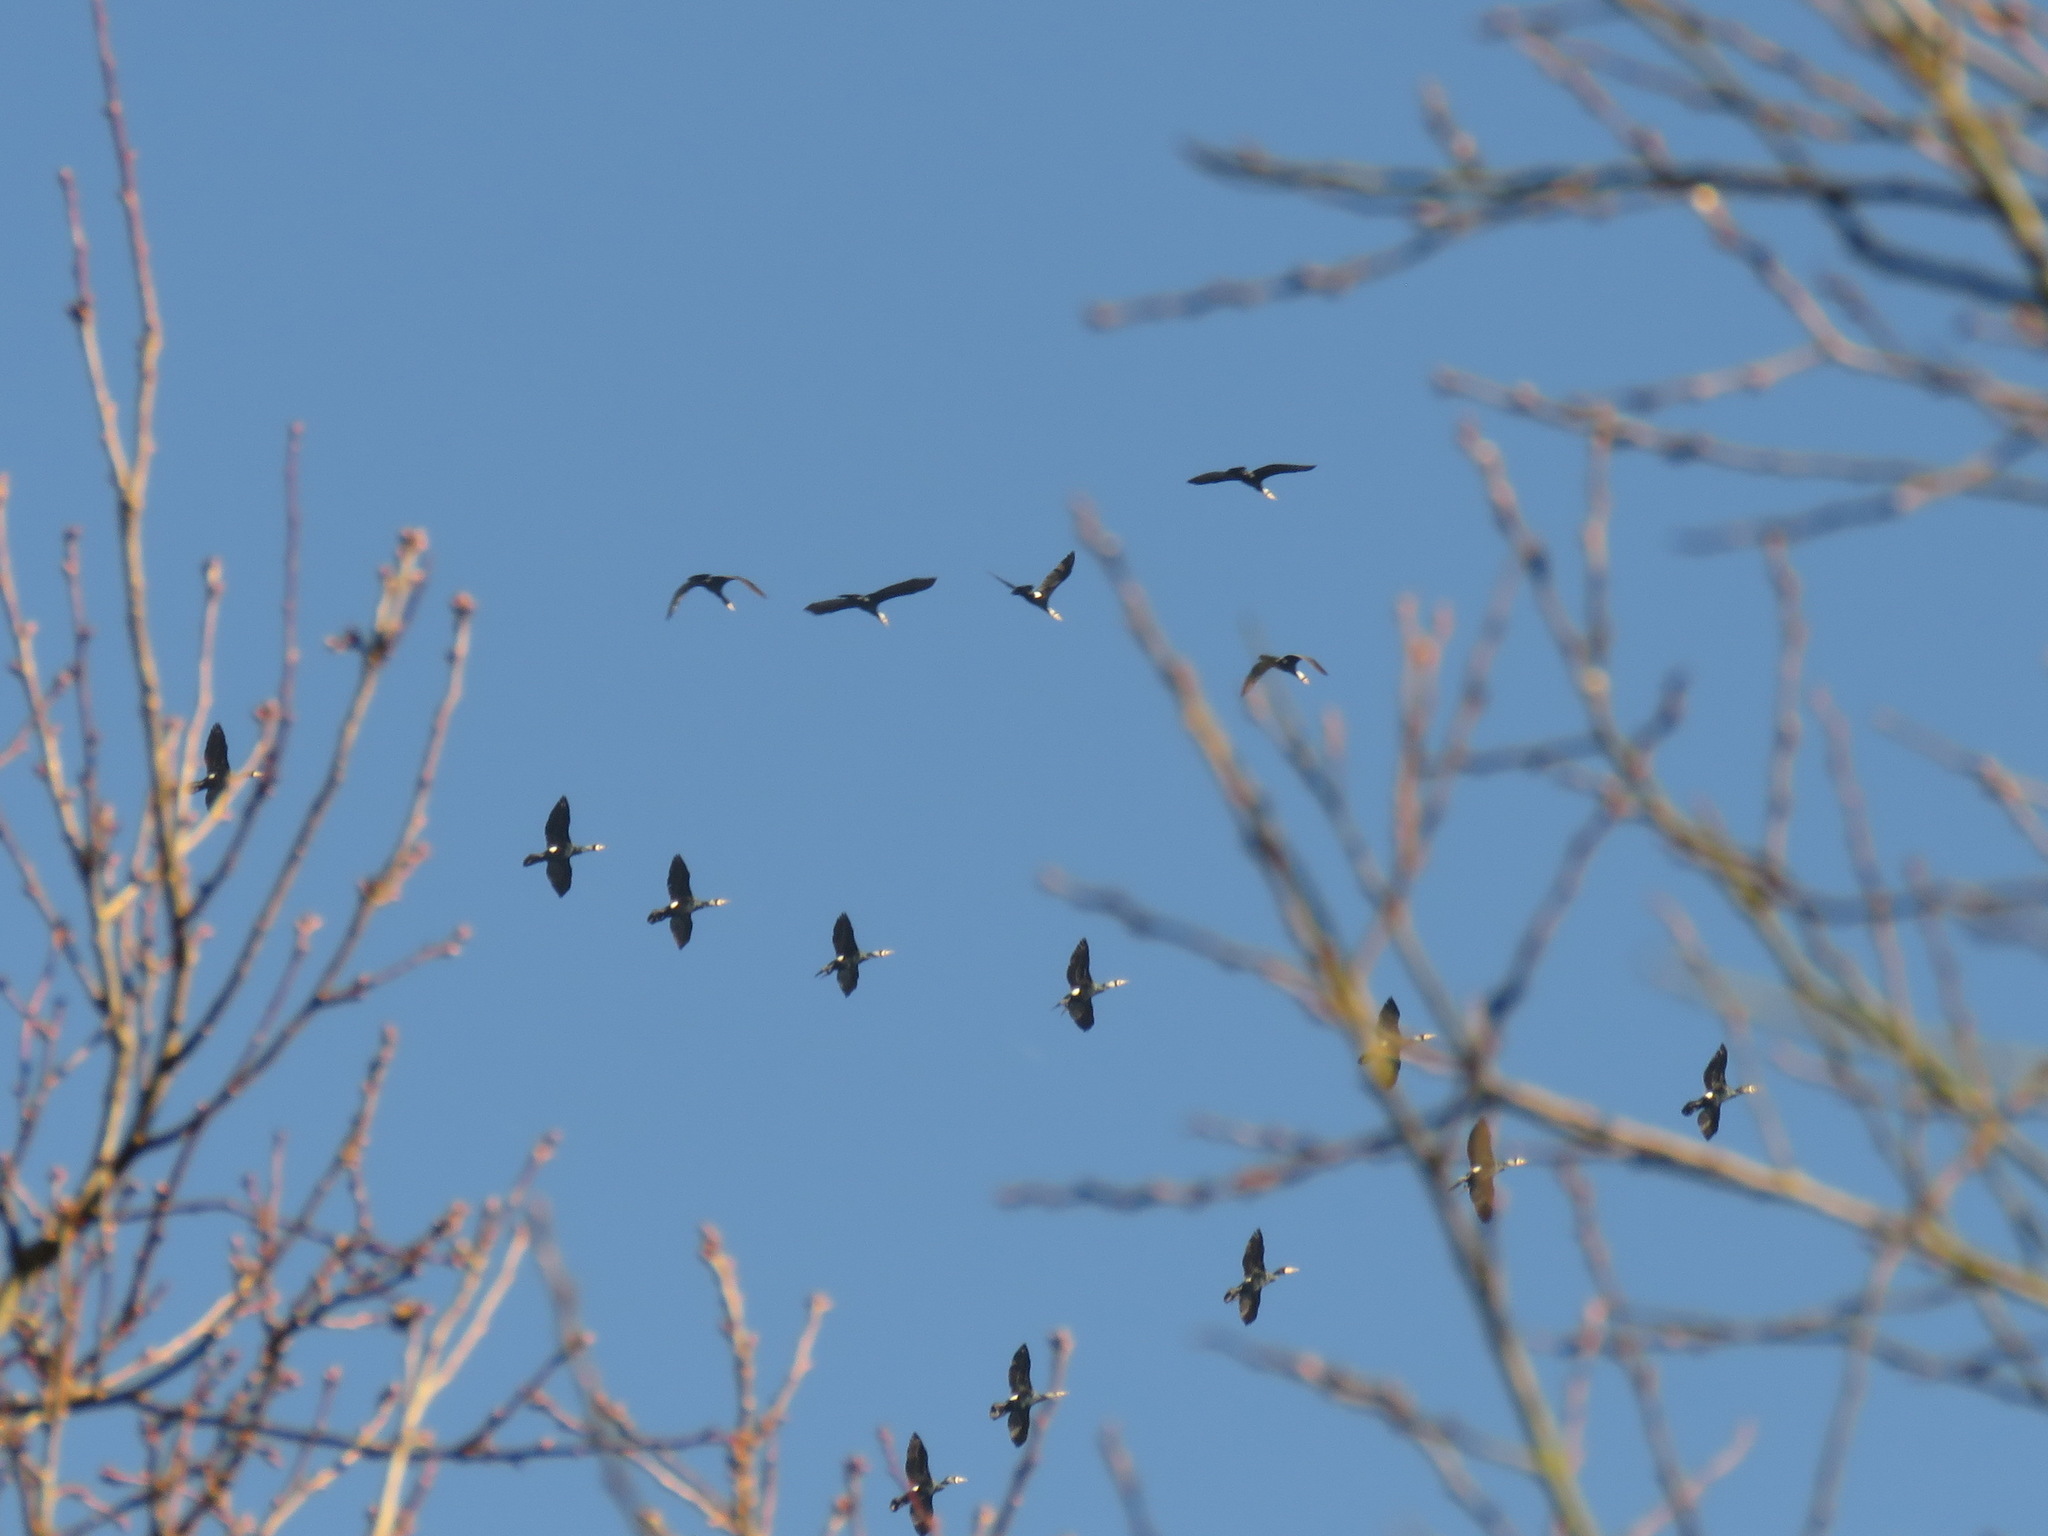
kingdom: Animalia
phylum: Chordata
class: Aves
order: Suliformes
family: Phalacrocoracidae
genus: Phalacrocorax
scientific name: Phalacrocorax carbo
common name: Great cormorant
